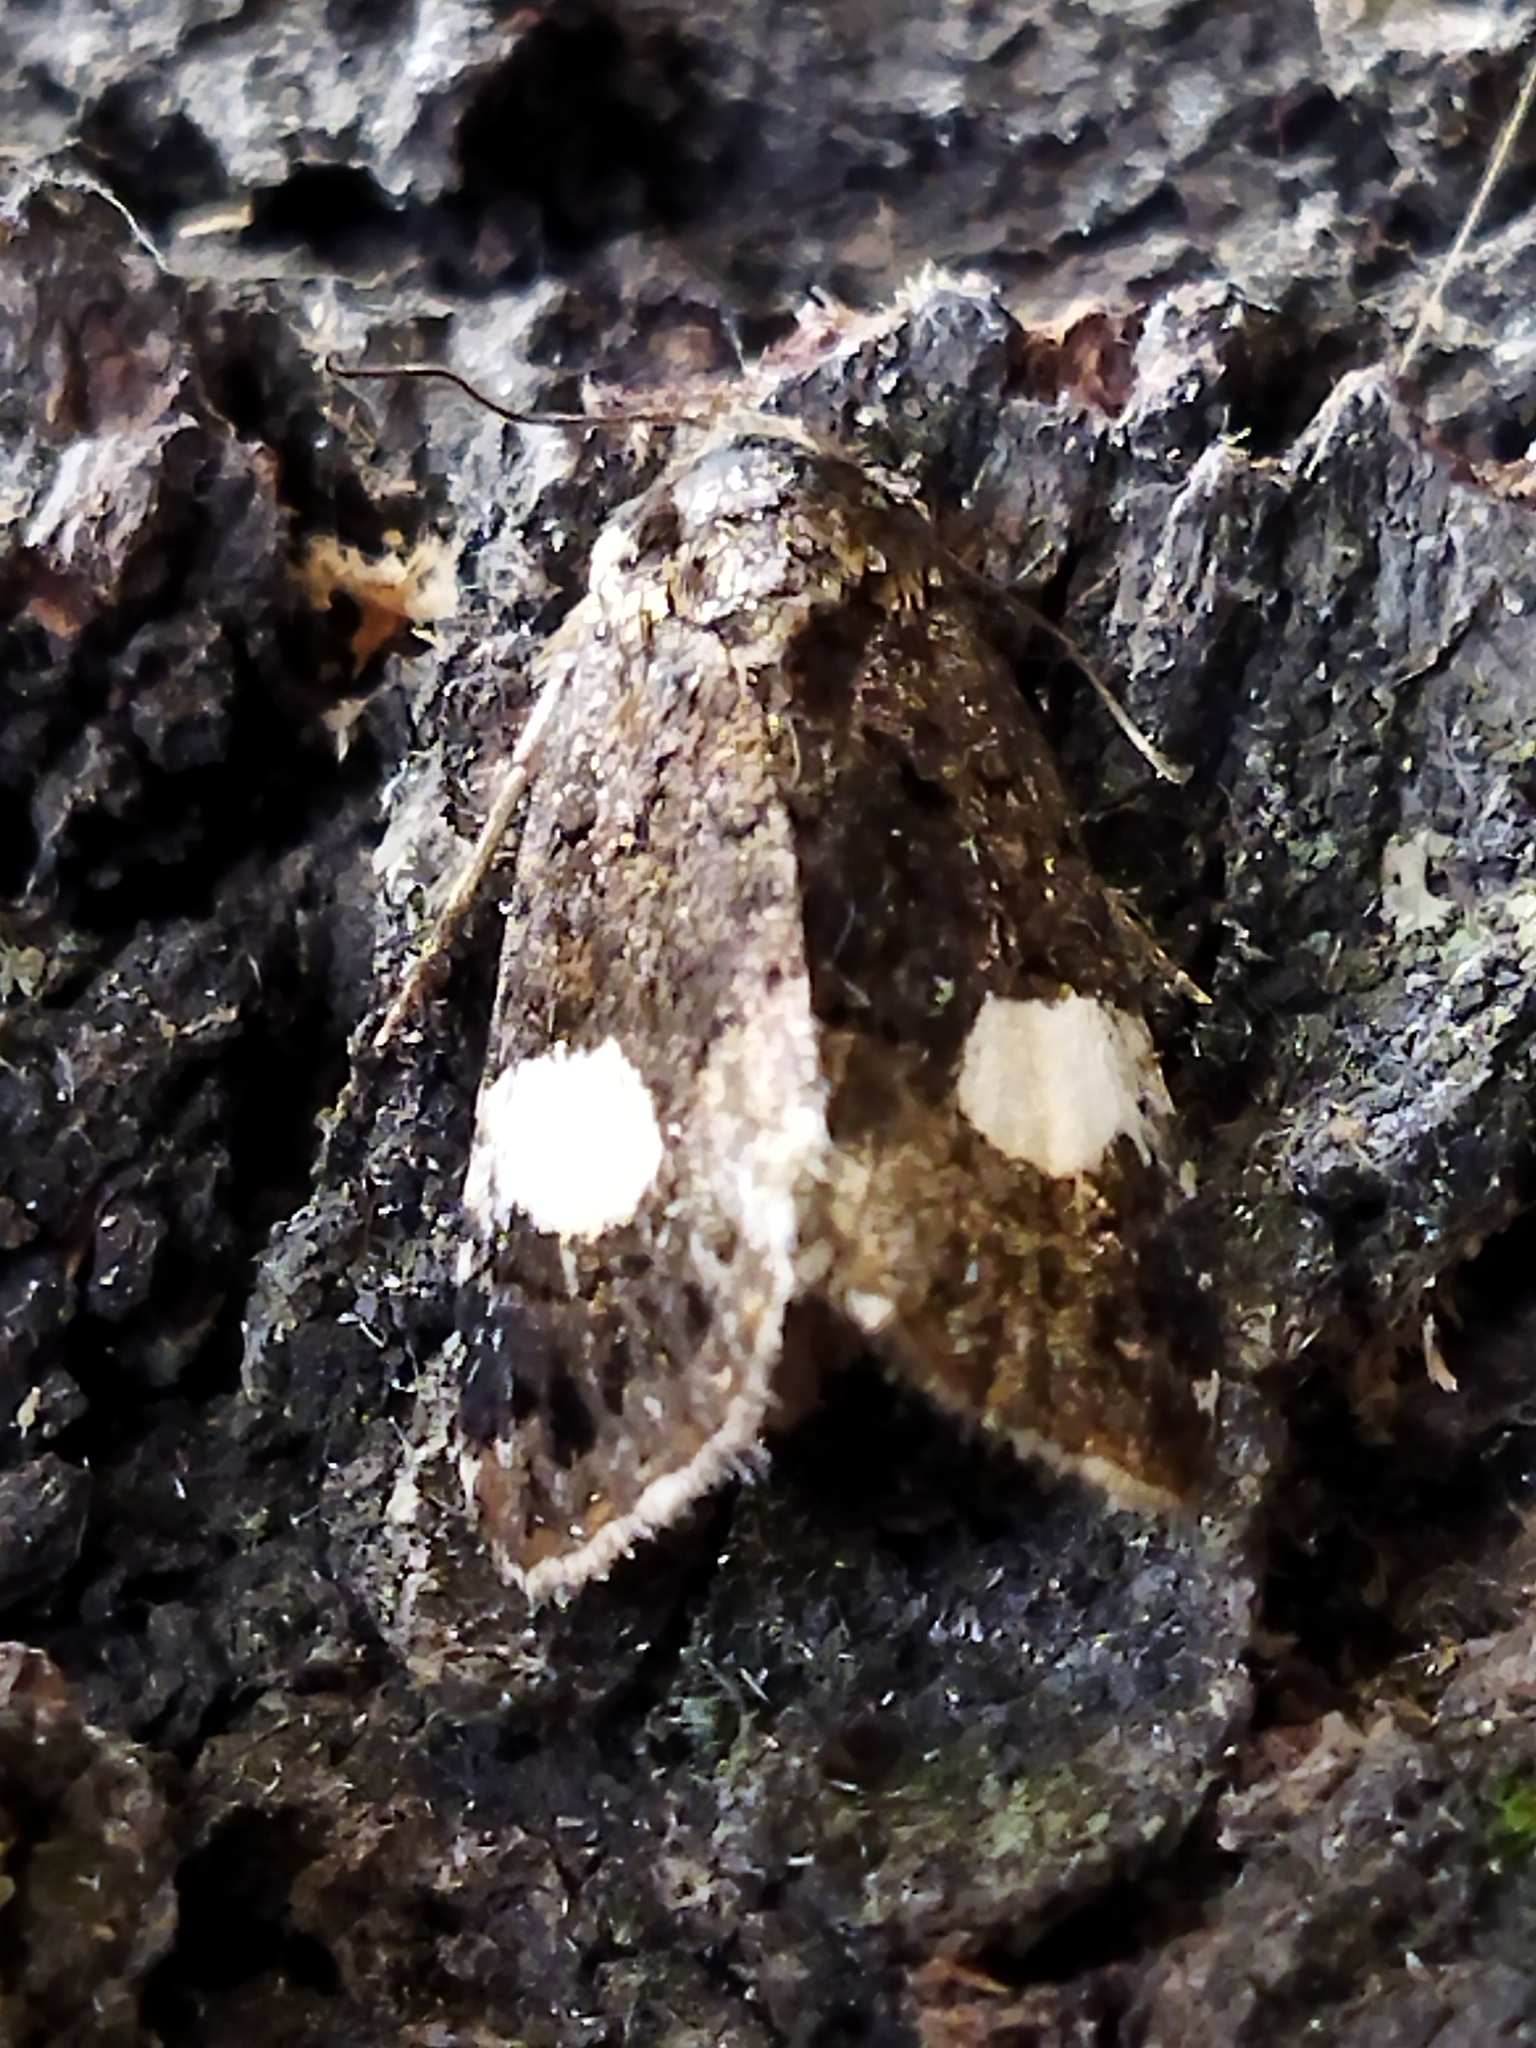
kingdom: Animalia
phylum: Arthropoda
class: Insecta
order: Lepidoptera
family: Erebidae
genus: Tyta
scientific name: Tyta luctuosa
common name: Four-spotted
